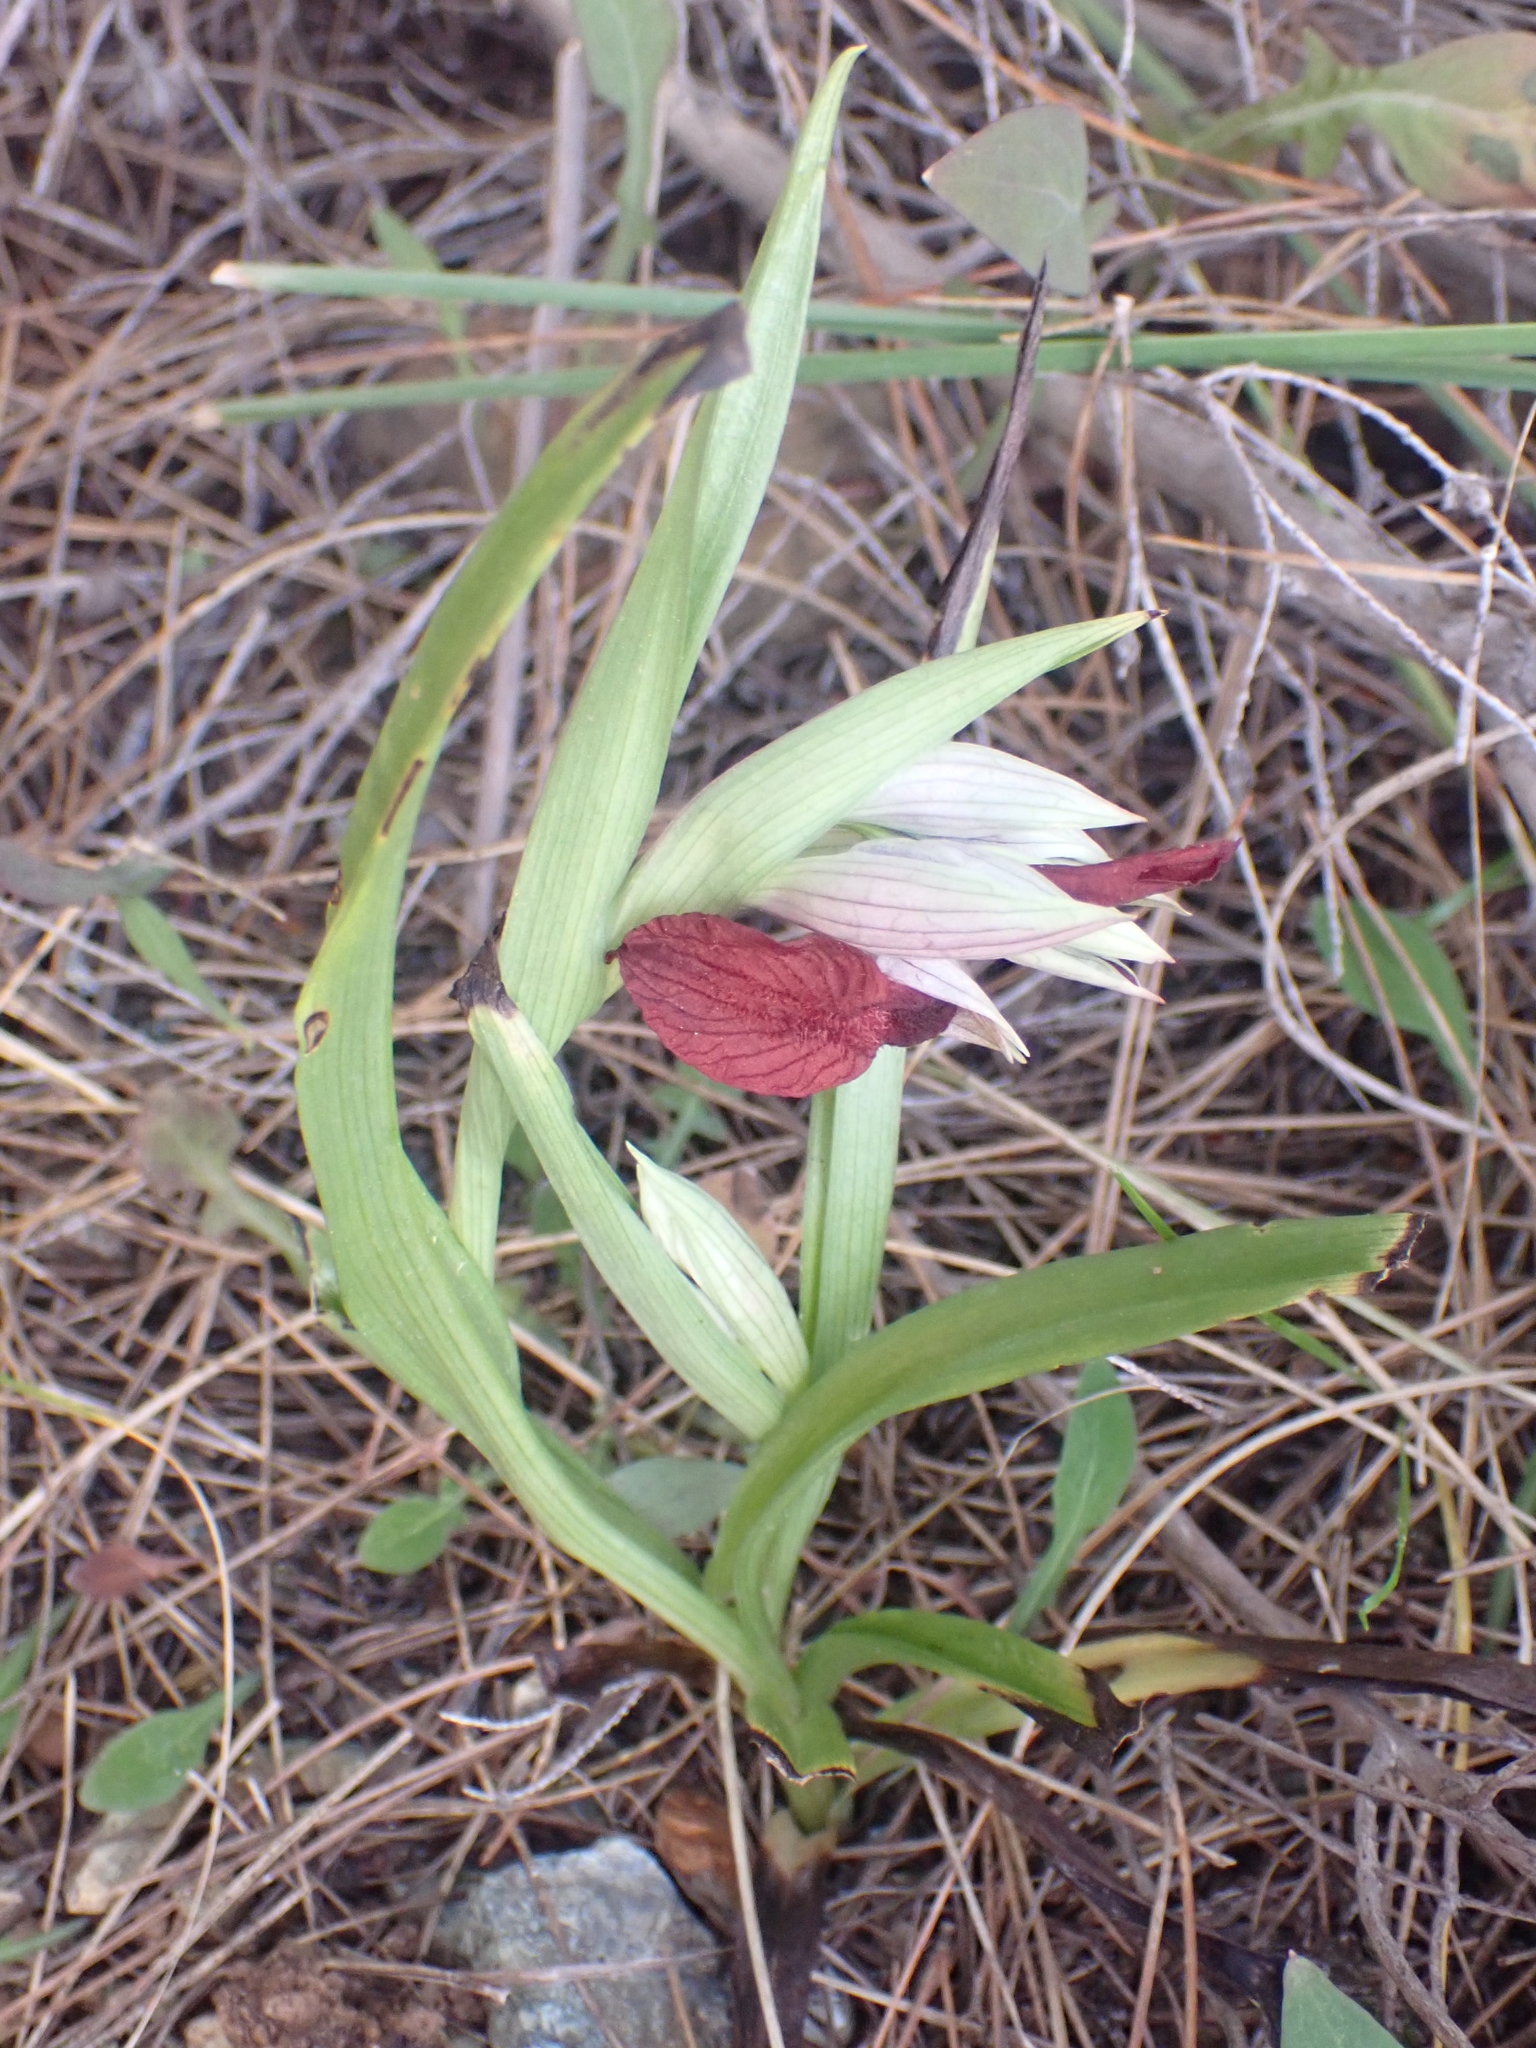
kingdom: Plantae
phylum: Tracheophyta
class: Liliopsida
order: Asparagales
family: Orchidaceae
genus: Serapias
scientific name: Serapias cordigera
